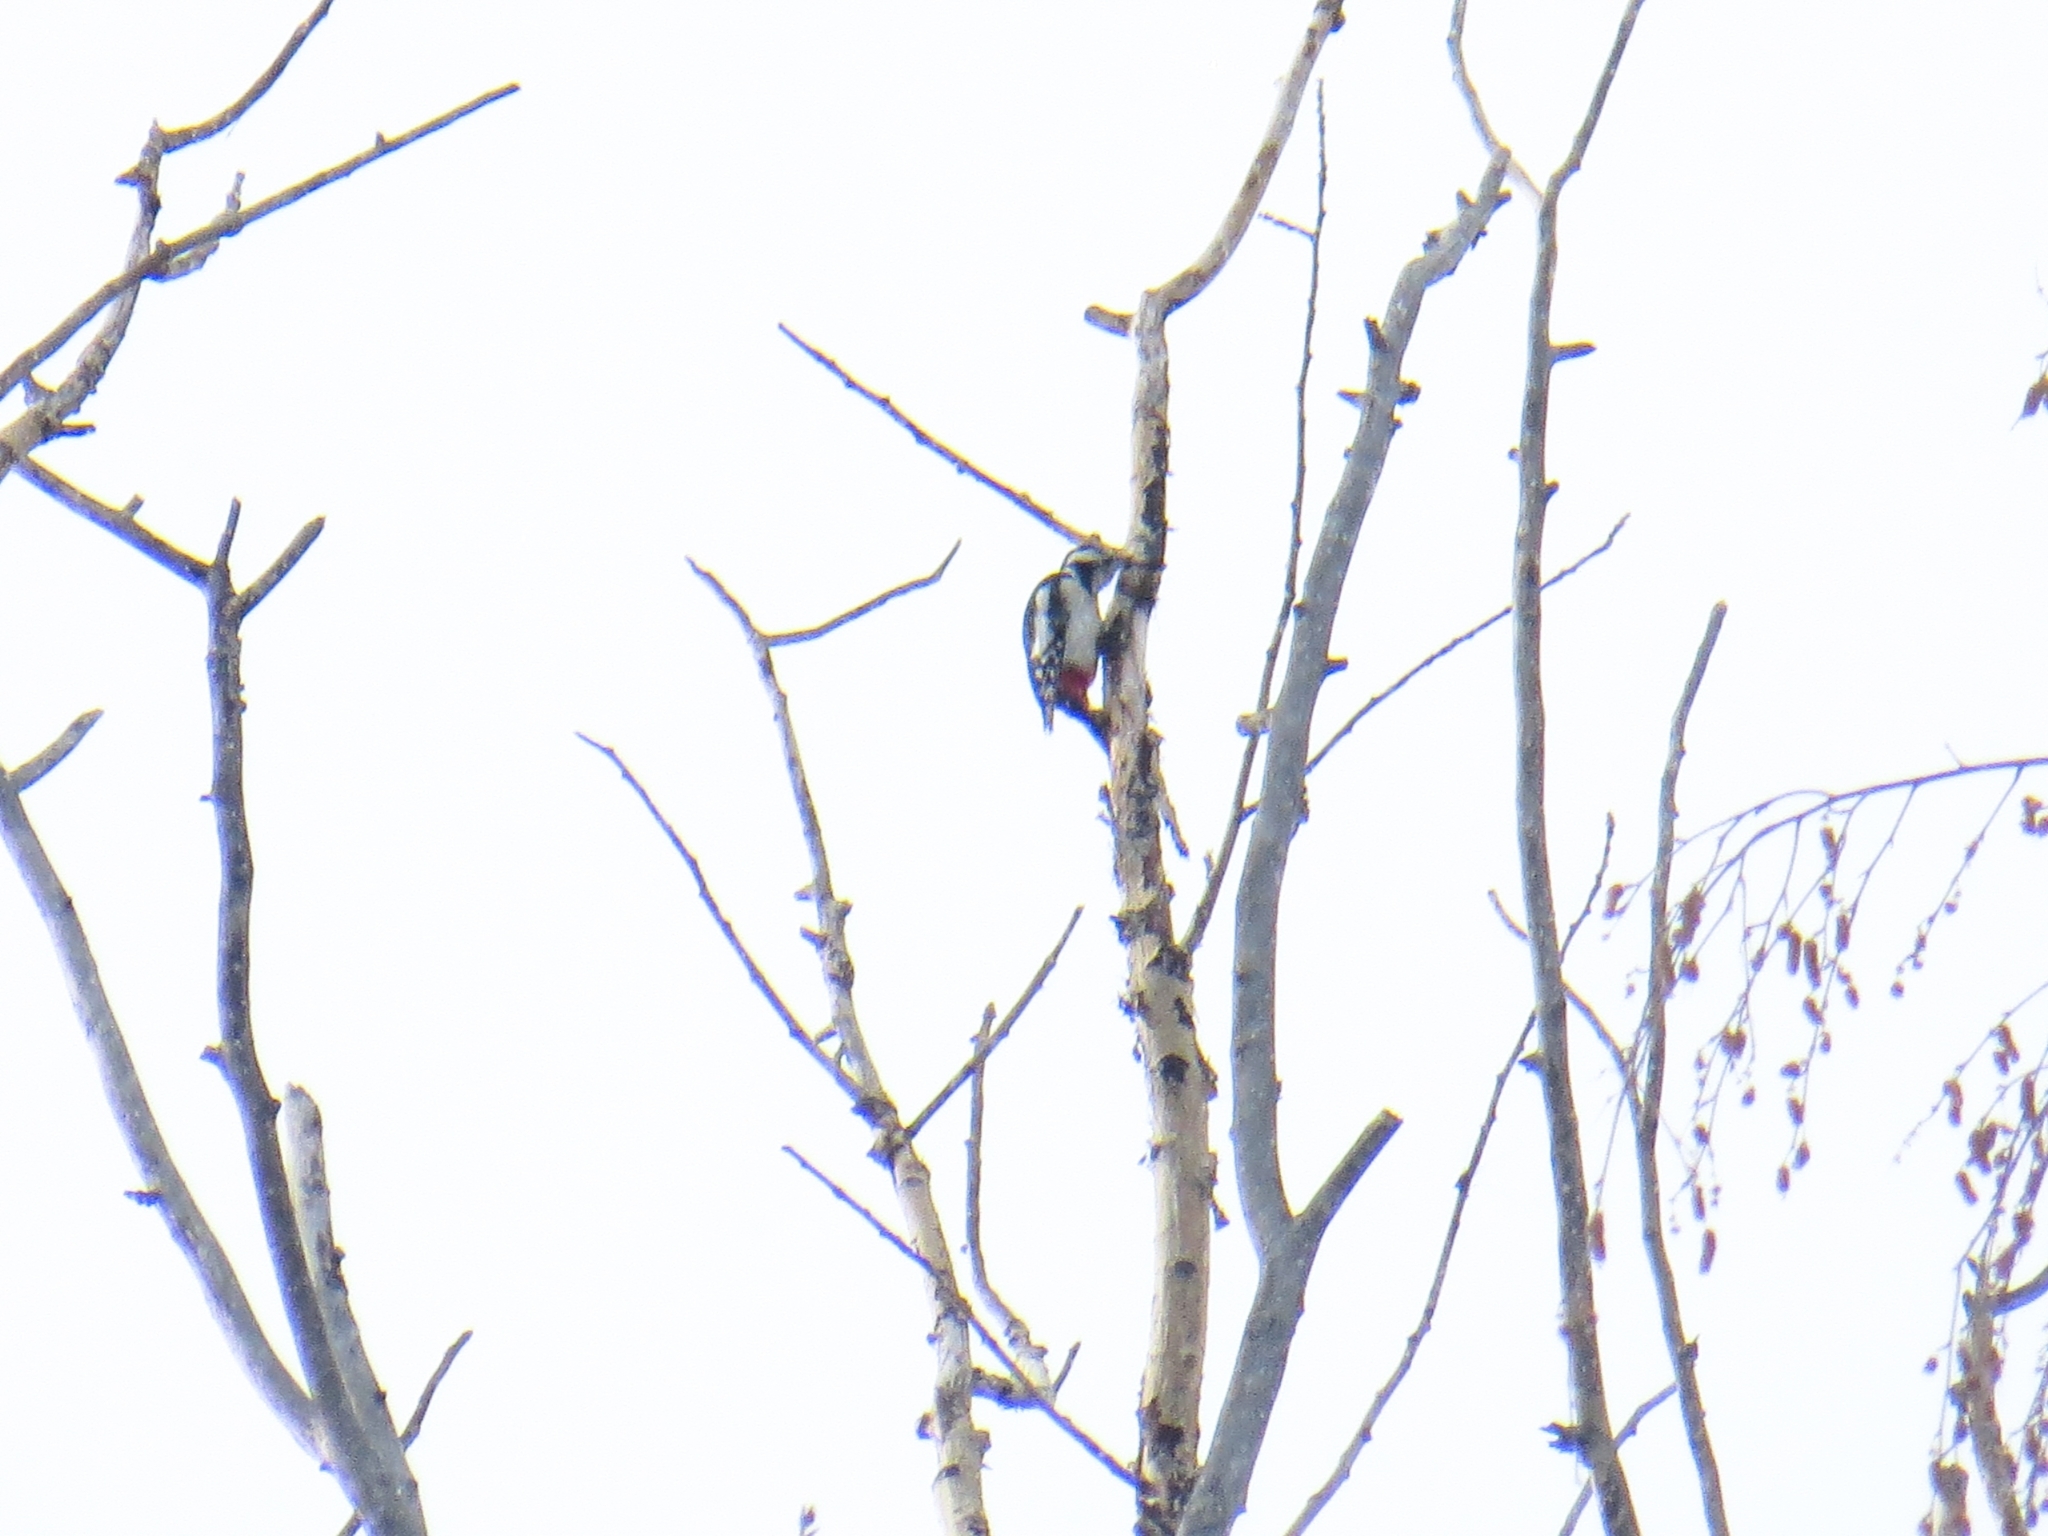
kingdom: Animalia
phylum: Chordata
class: Aves
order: Piciformes
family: Picidae
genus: Dendrocopos
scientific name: Dendrocopos major
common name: Great spotted woodpecker
